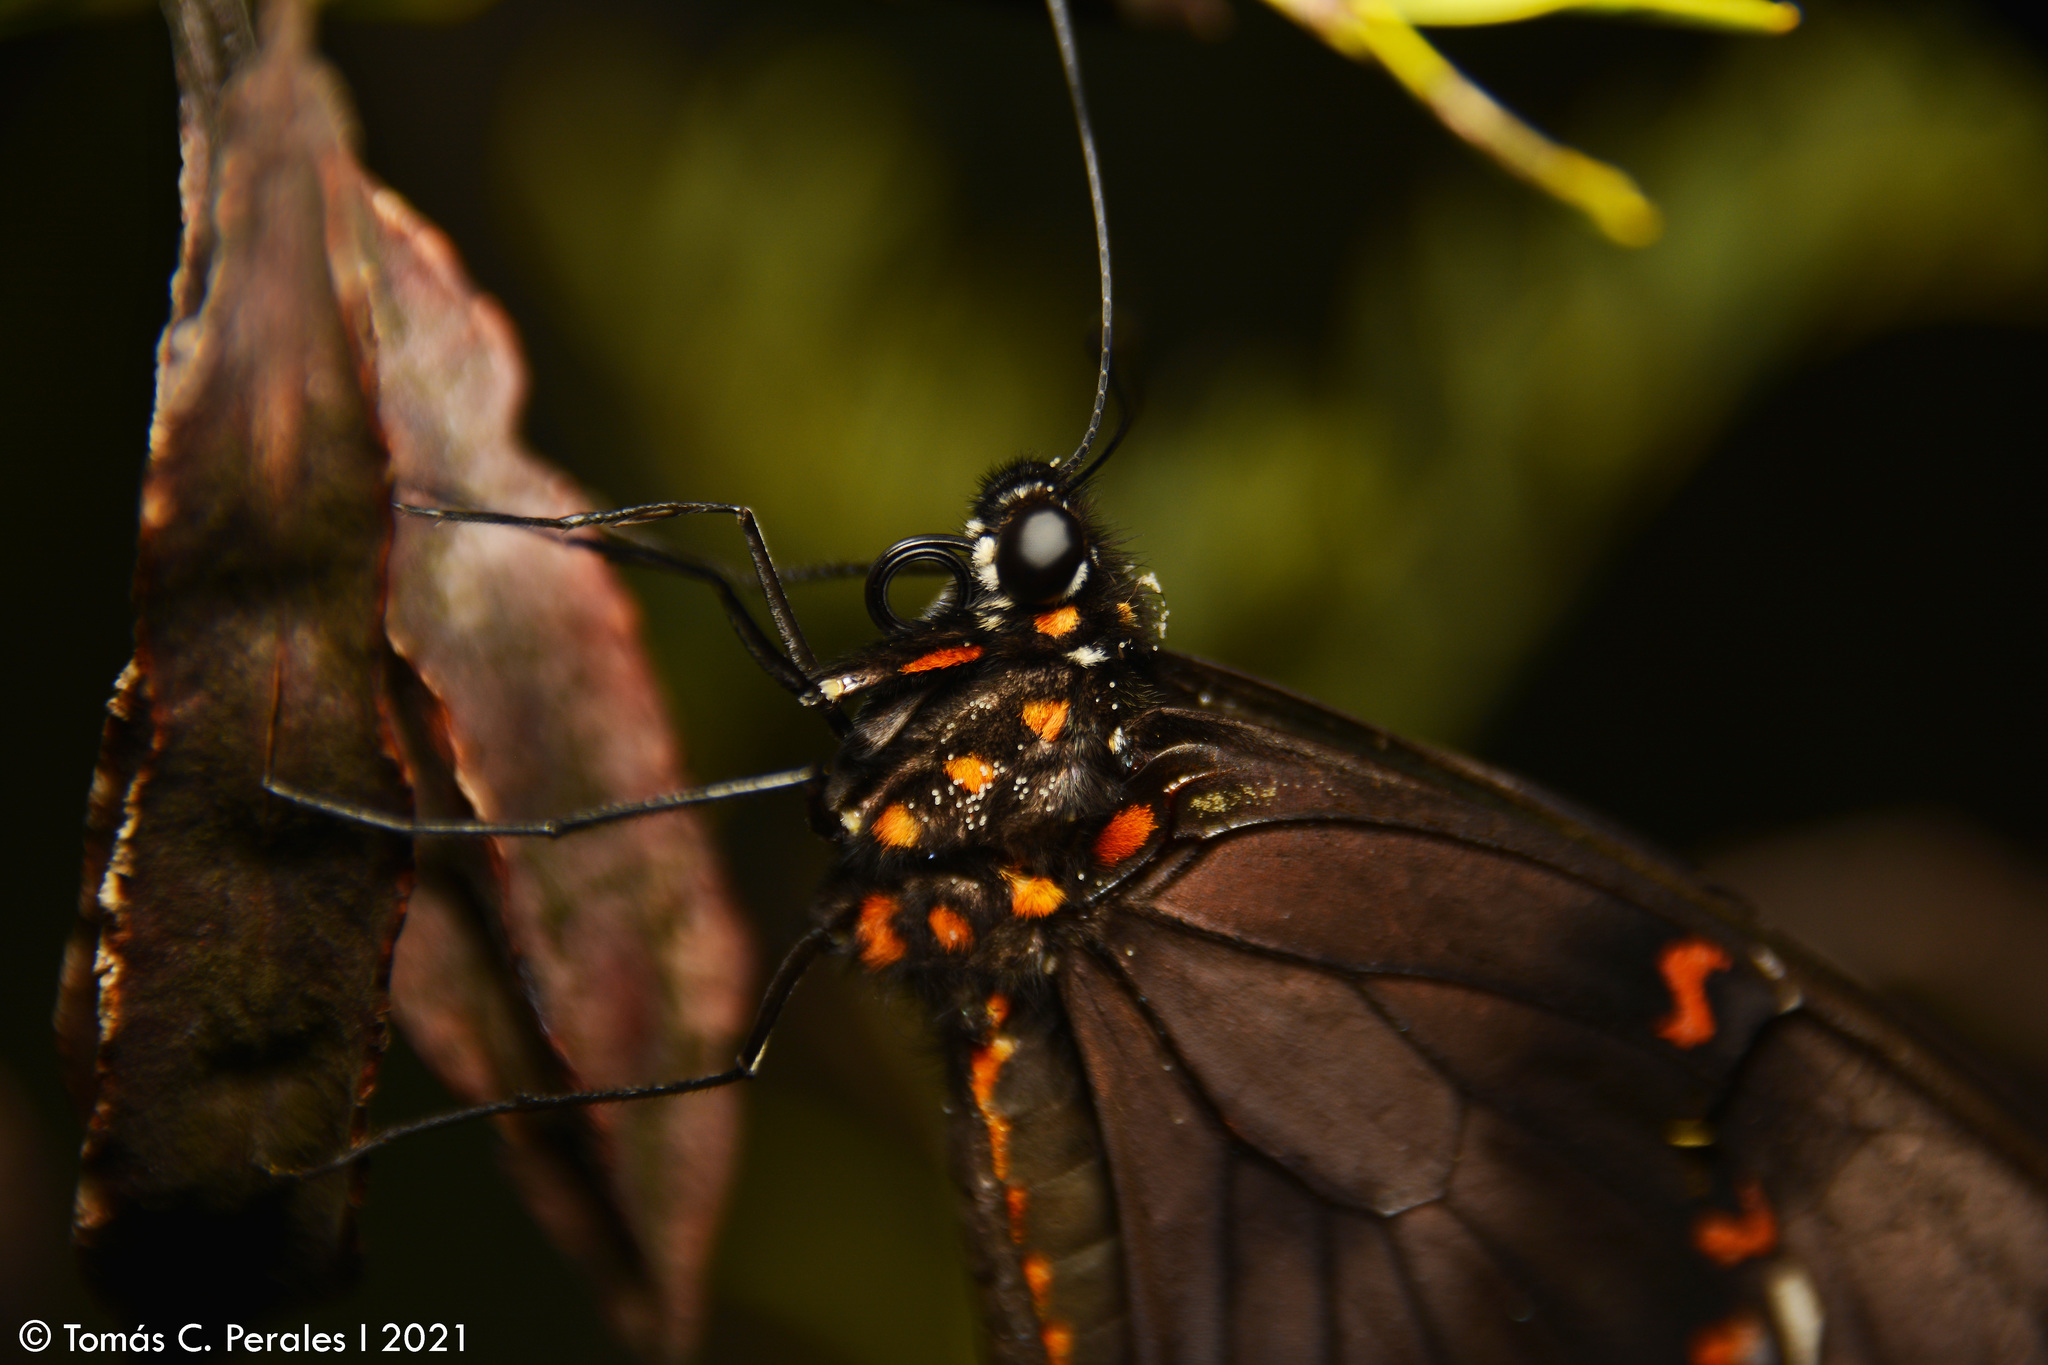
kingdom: Animalia
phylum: Arthropoda
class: Insecta
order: Lepidoptera
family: Papilionidae
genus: Battus
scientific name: Battus polydamas
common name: Polydamas swallowtail
